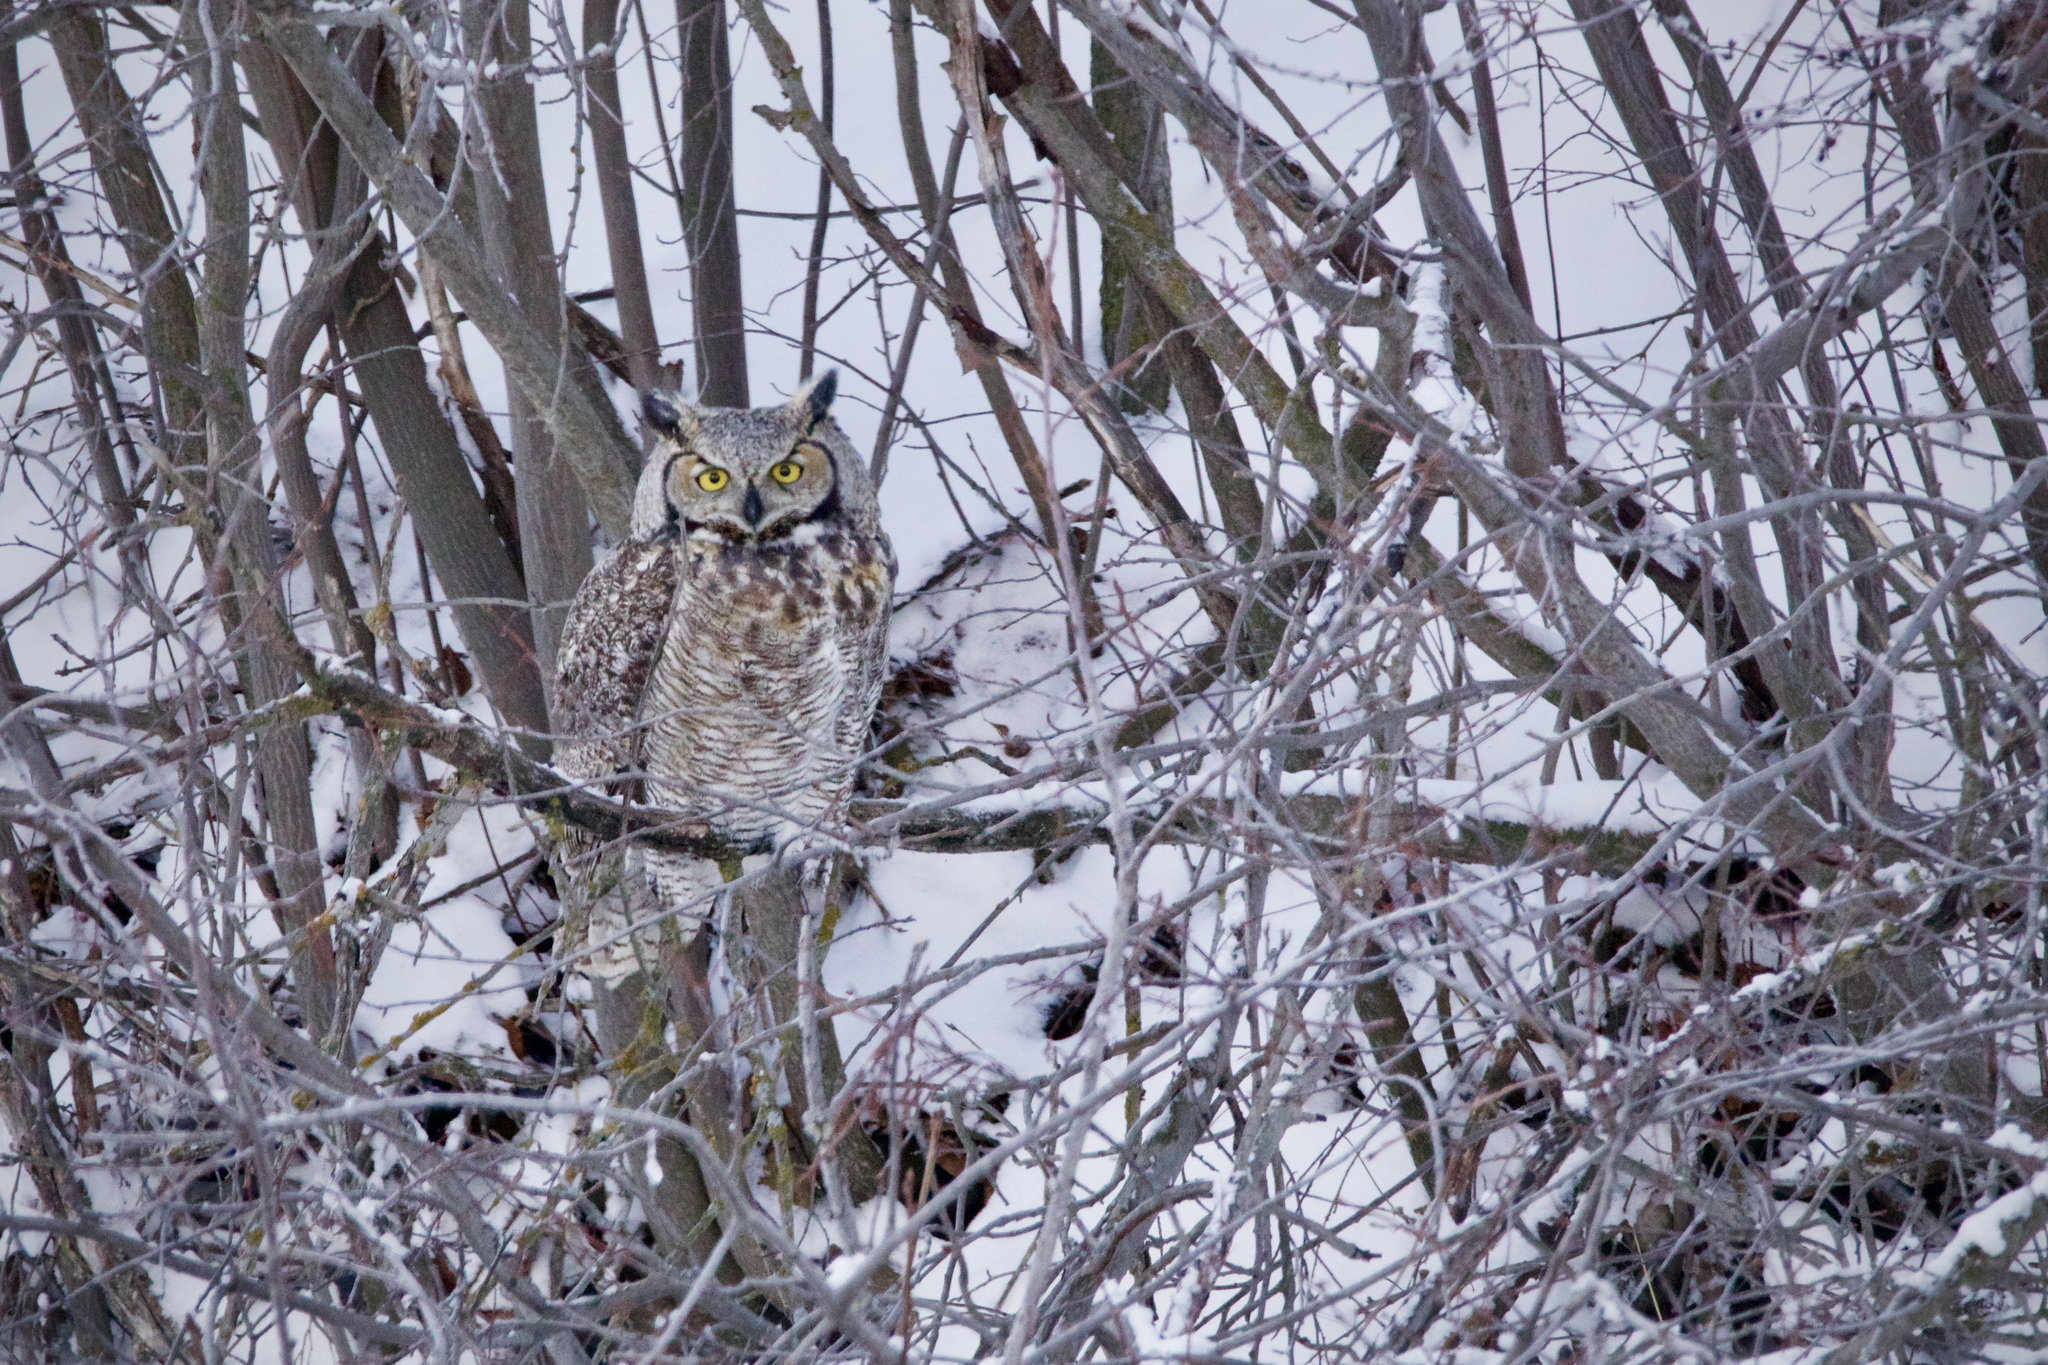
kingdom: Animalia
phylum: Chordata
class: Aves
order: Strigiformes
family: Strigidae
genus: Bubo
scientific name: Bubo virginianus
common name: Great horned owl
